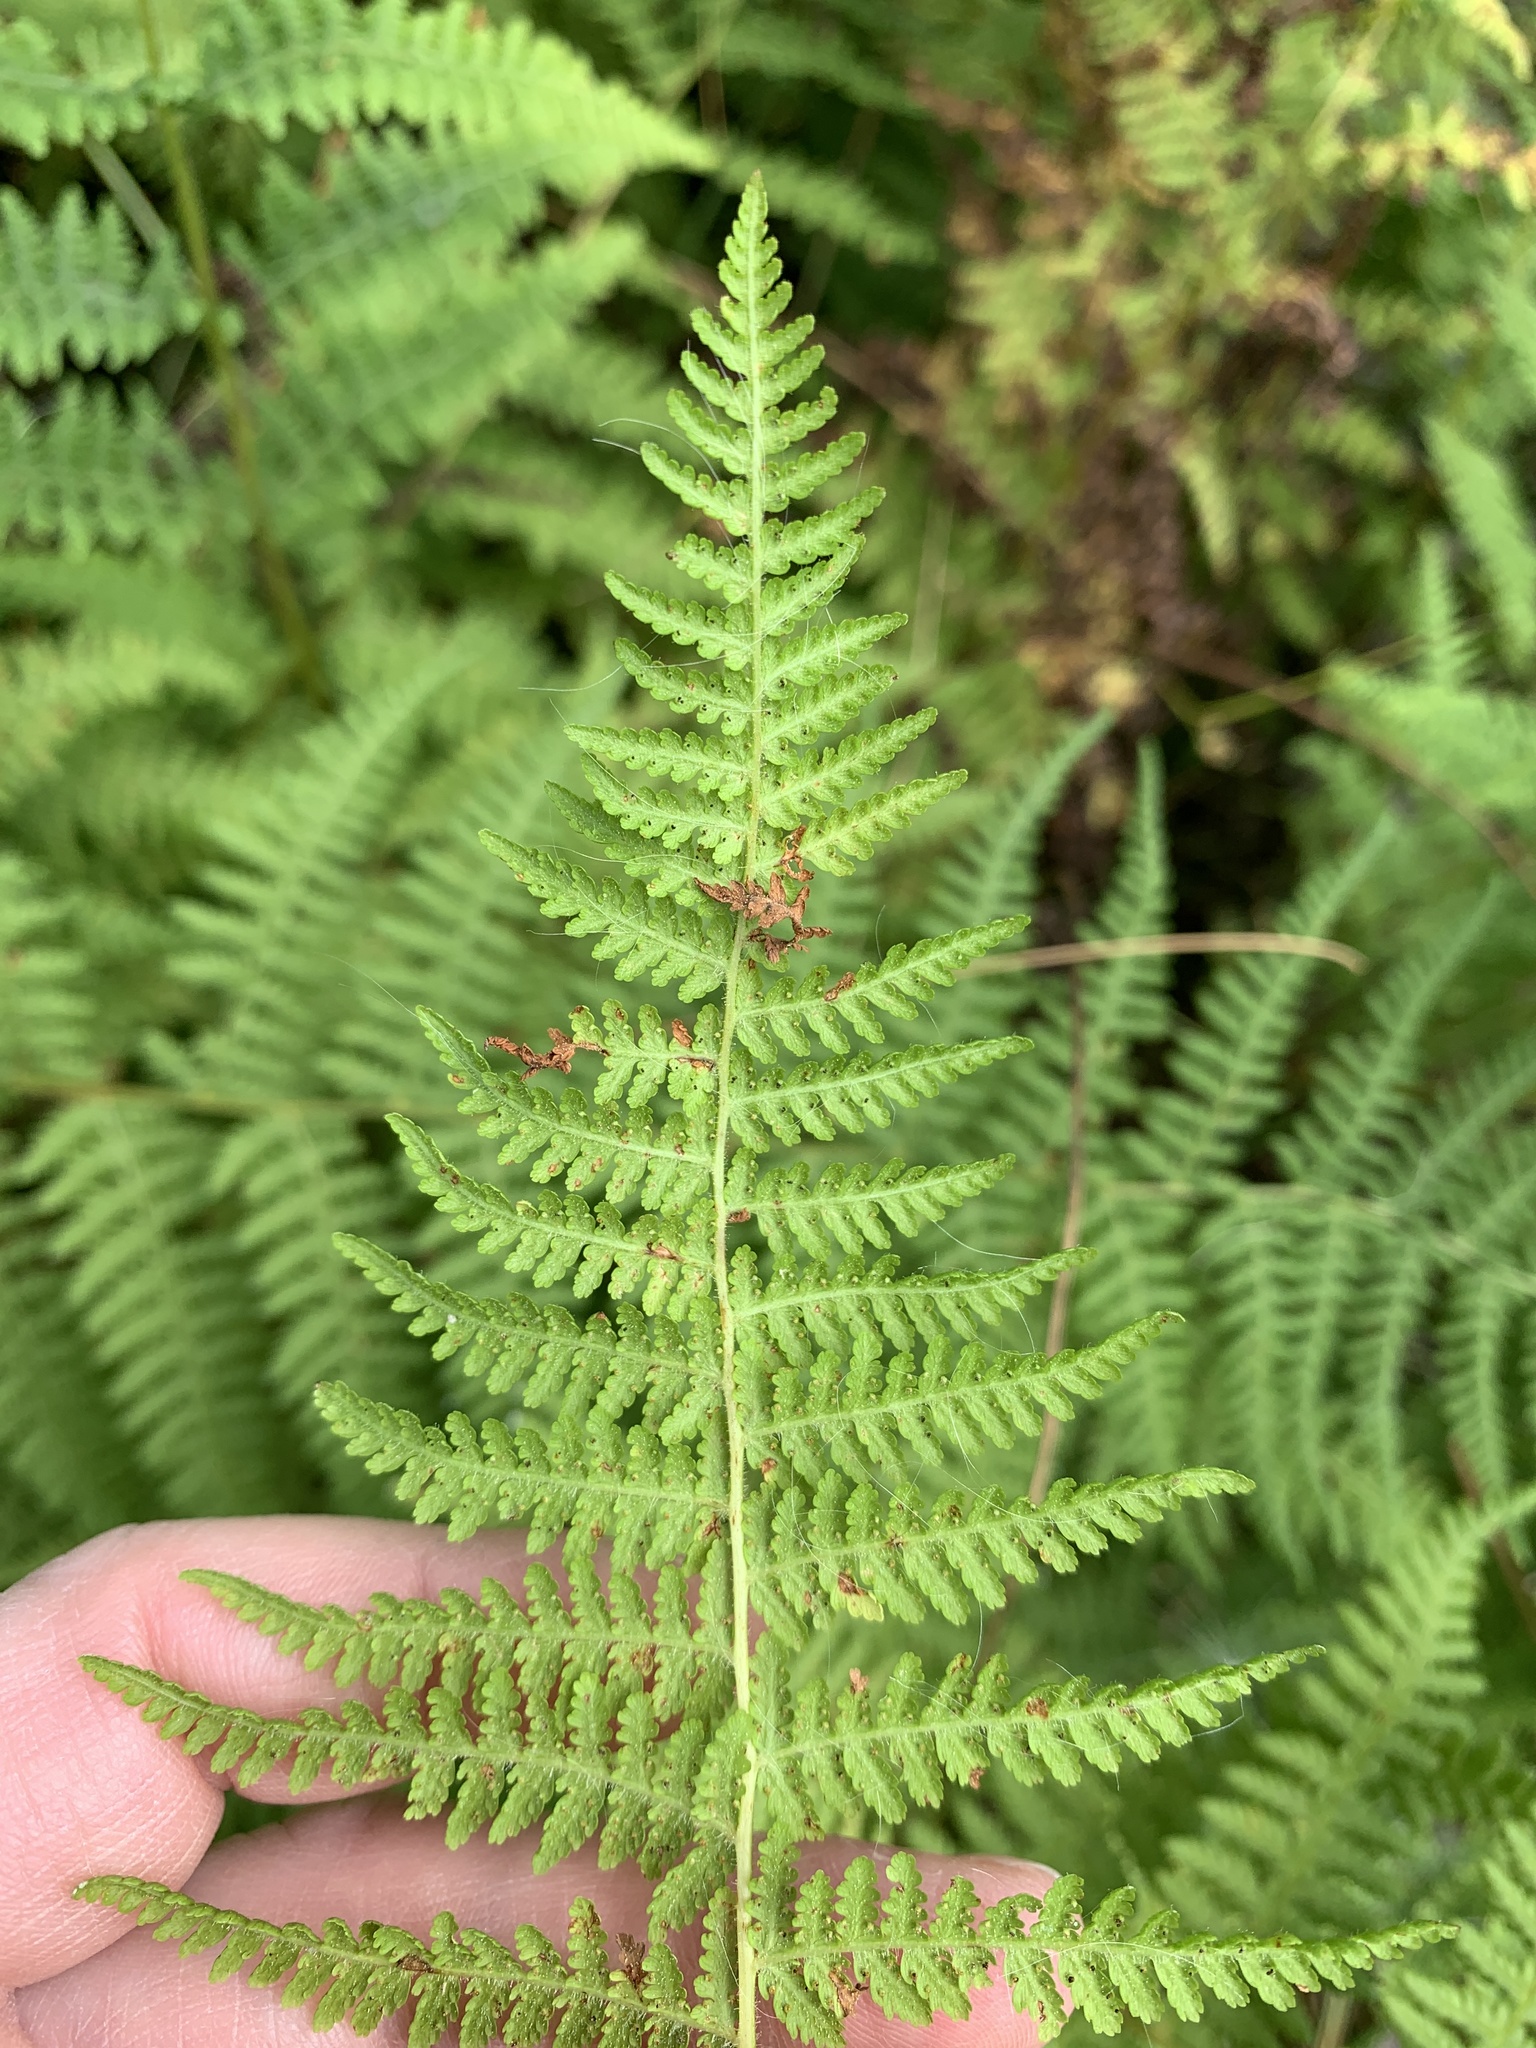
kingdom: Plantae
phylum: Tracheophyta
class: Polypodiopsida
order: Polypodiales
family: Dennstaedtiaceae
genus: Sitobolium
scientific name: Sitobolium punctilobum
